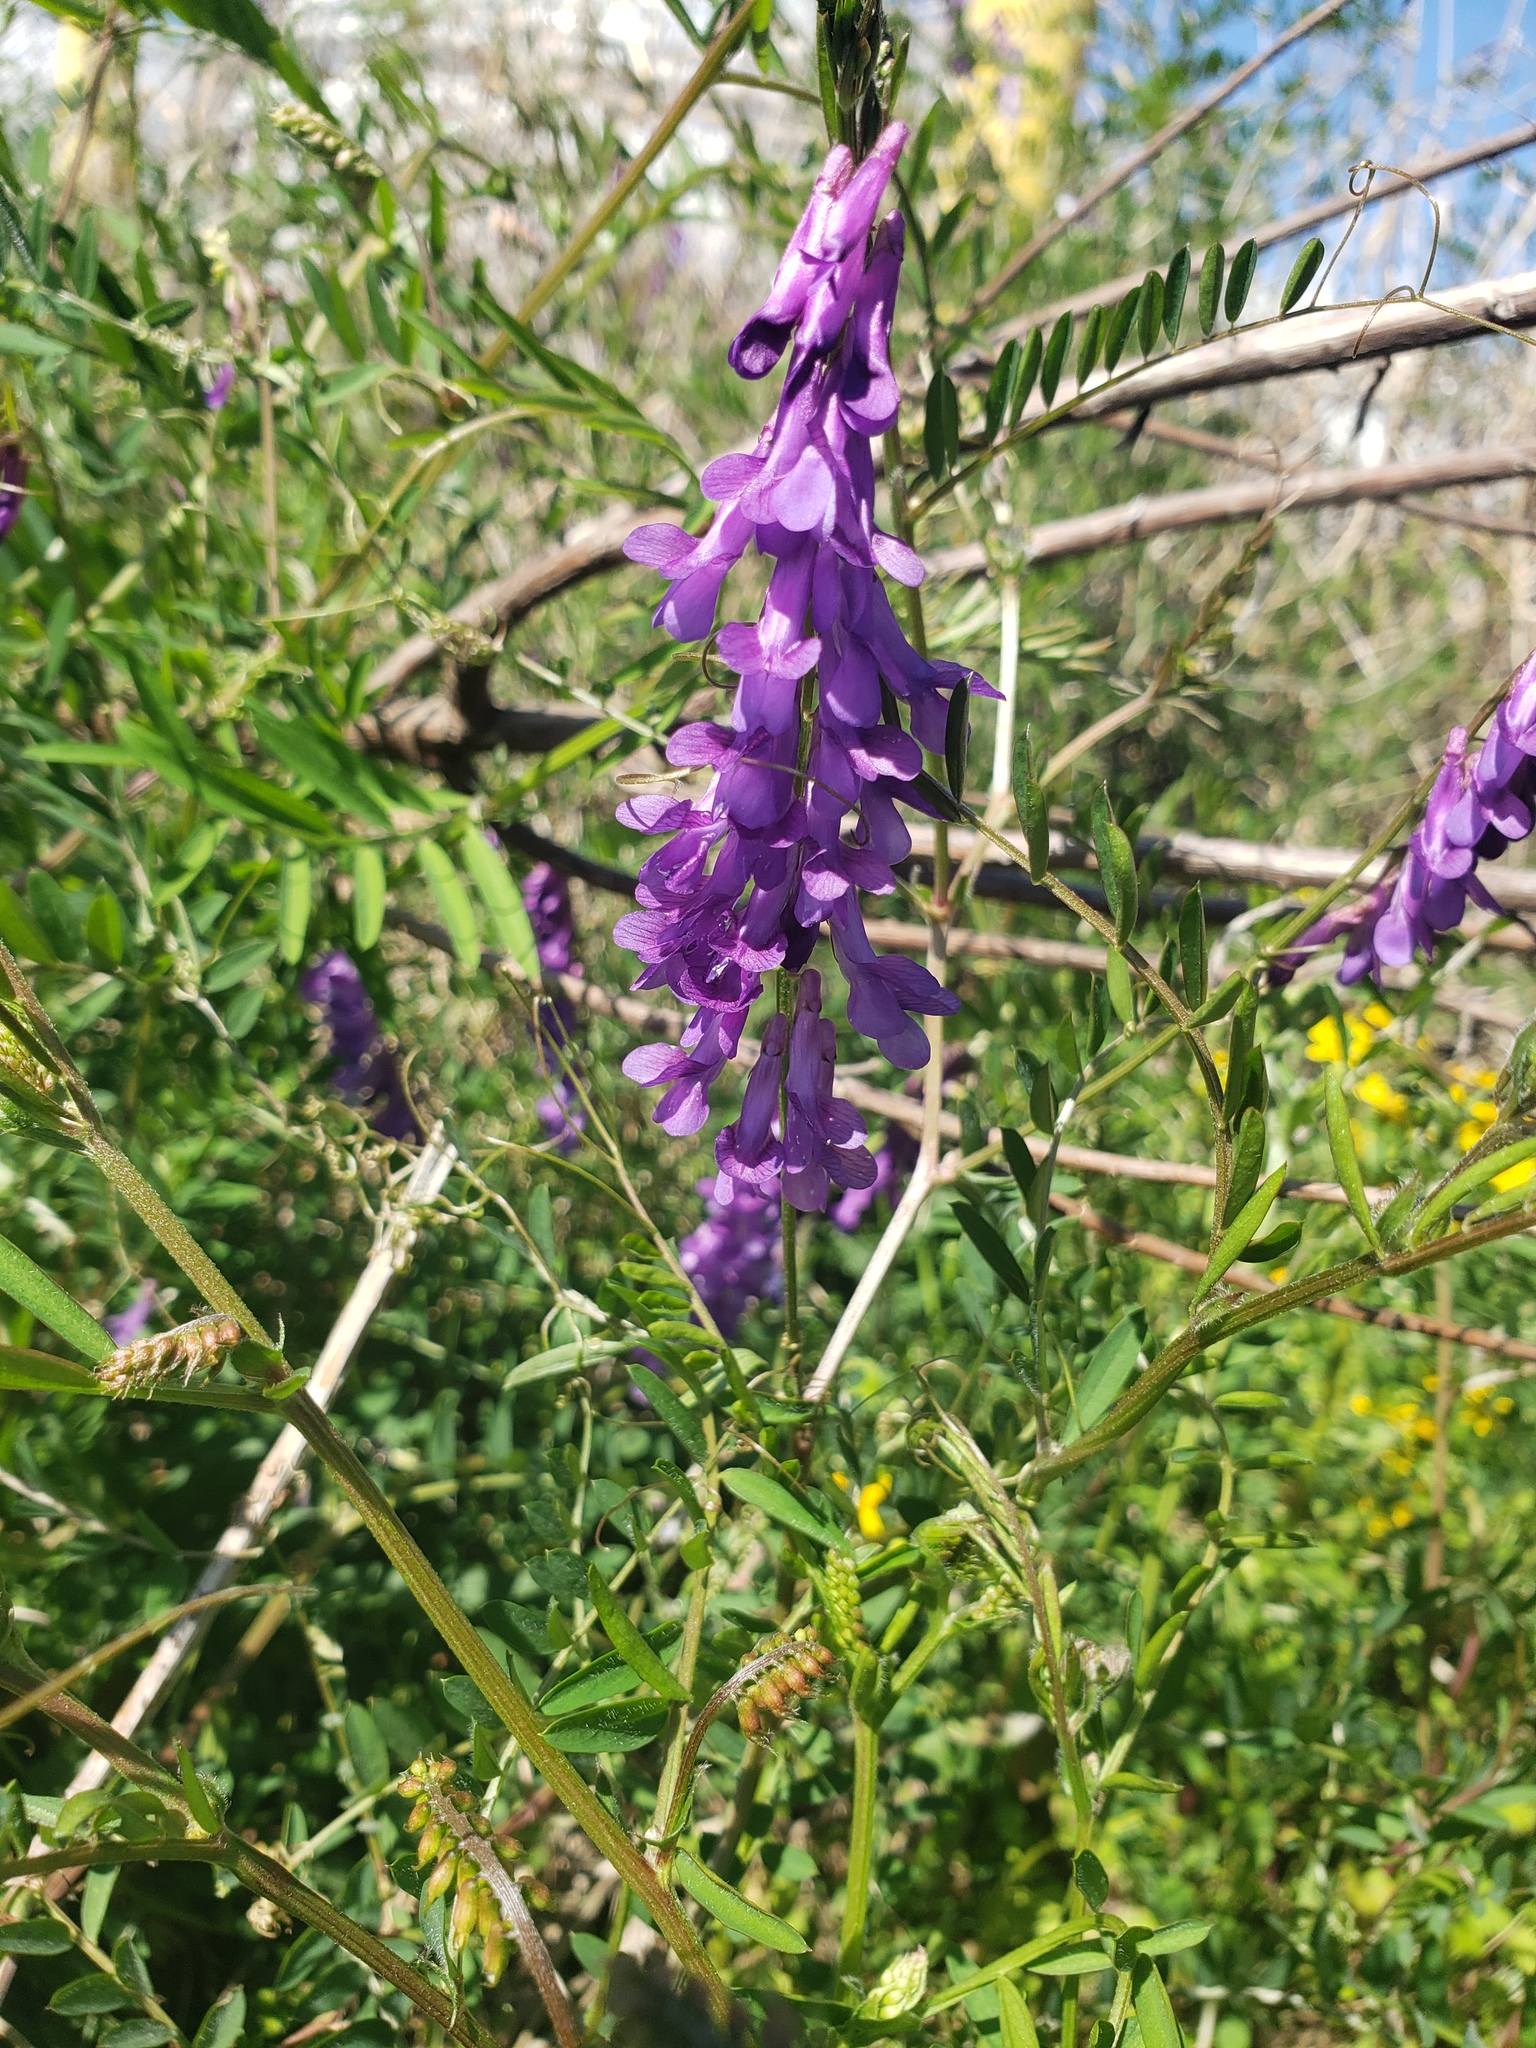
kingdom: Plantae
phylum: Tracheophyta
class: Magnoliopsida
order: Fabales
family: Fabaceae
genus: Vicia
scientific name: Vicia villosa
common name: Fodder vetch
